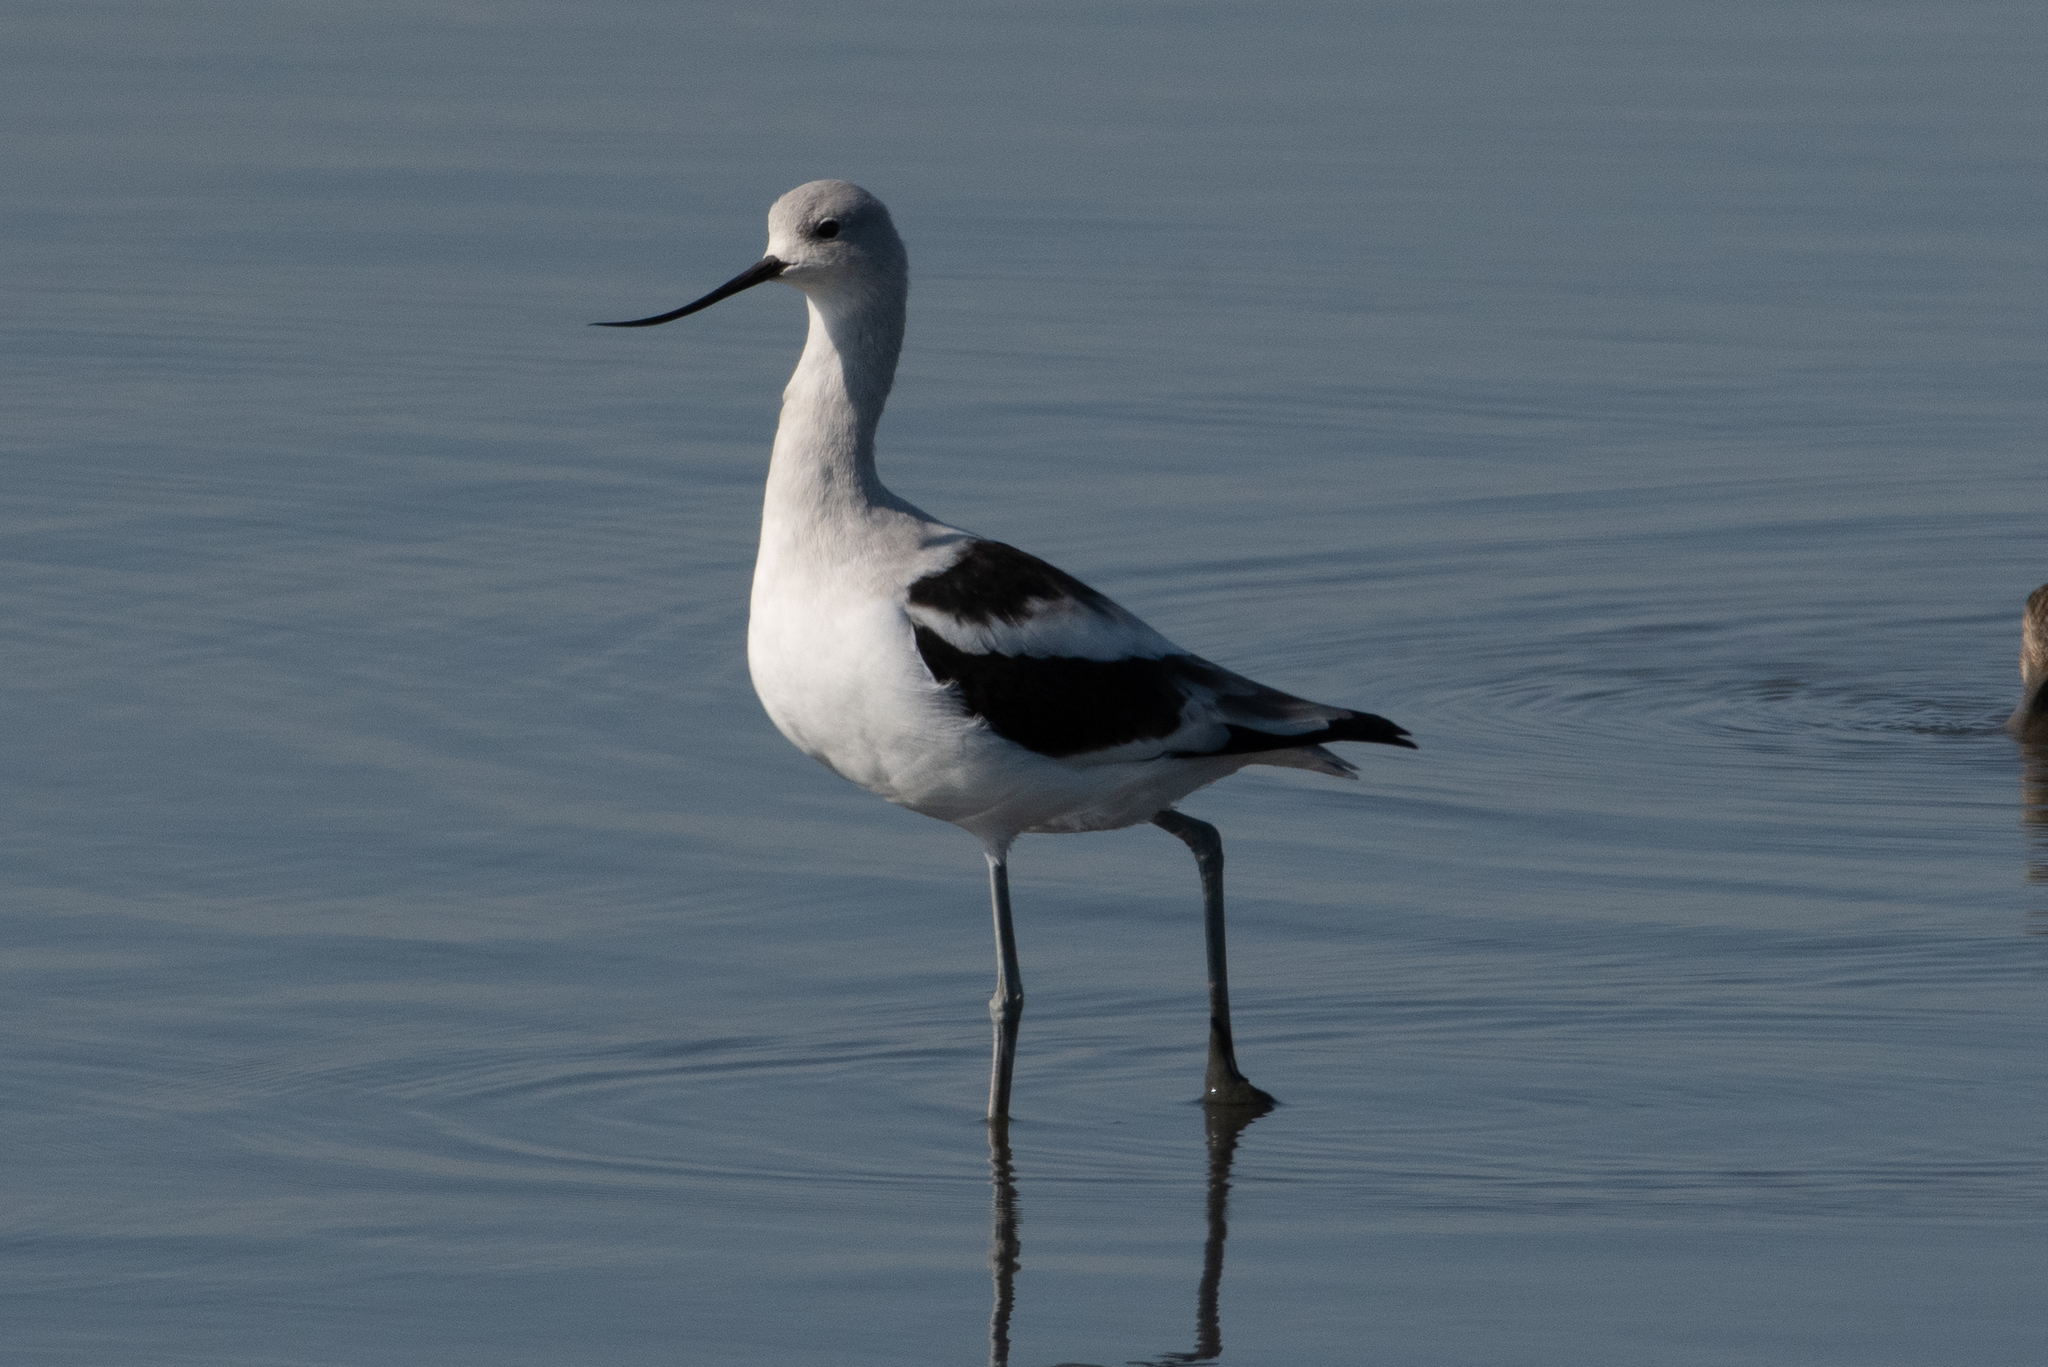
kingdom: Animalia
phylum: Chordata
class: Aves
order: Charadriiformes
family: Recurvirostridae
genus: Recurvirostra
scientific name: Recurvirostra americana
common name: American avocet
